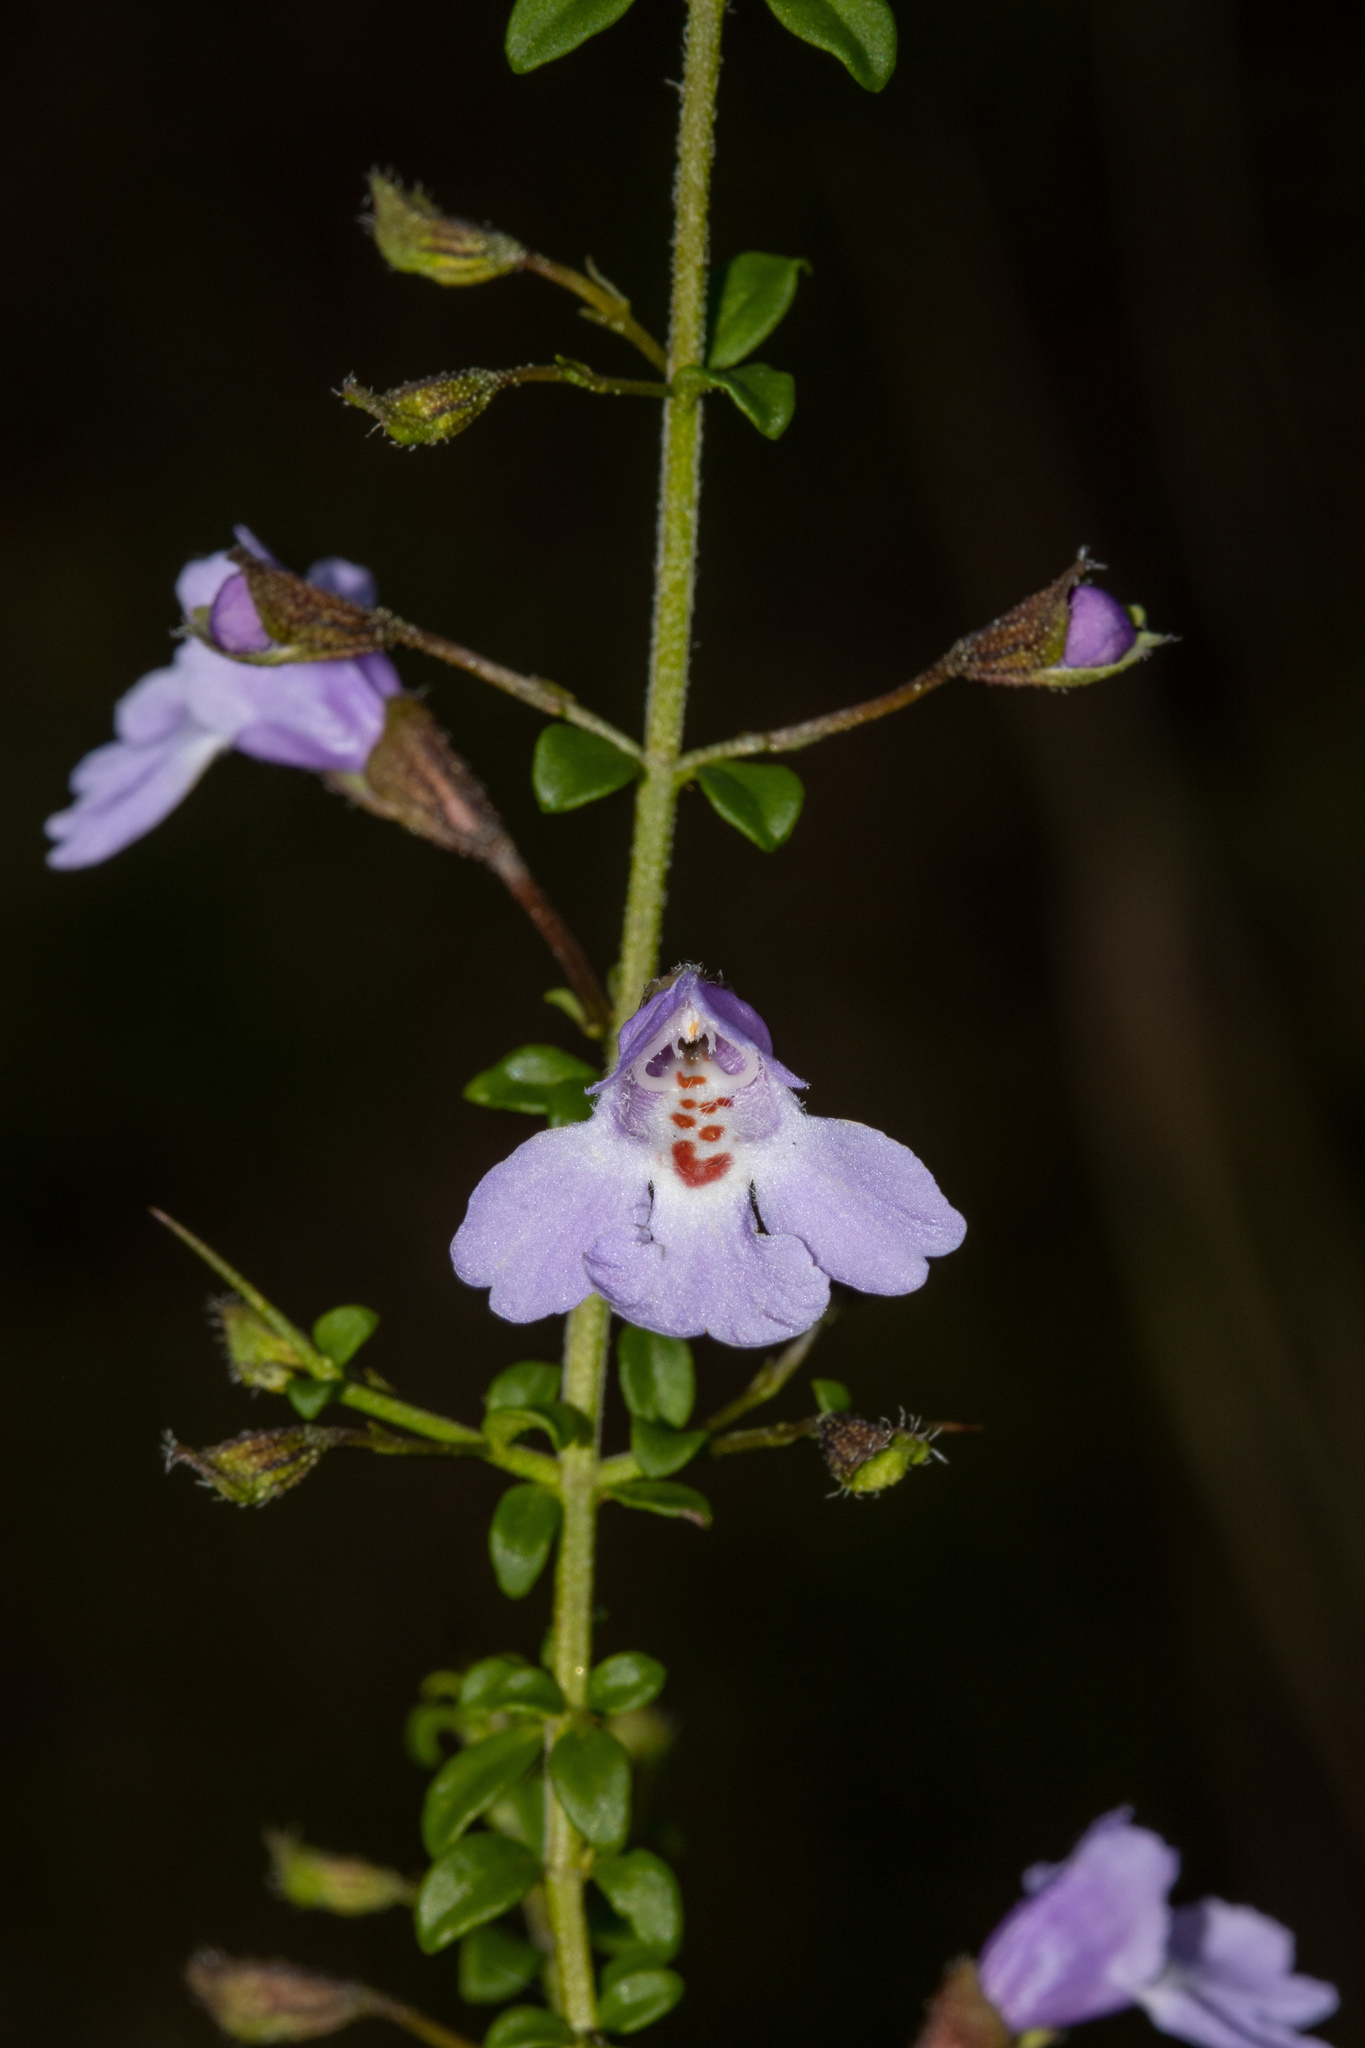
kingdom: Plantae
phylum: Tracheophyta
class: Magnoliopsida
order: Lamiales
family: Lamiaceae
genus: Prostanthera
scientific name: Prostanthera spinosa
